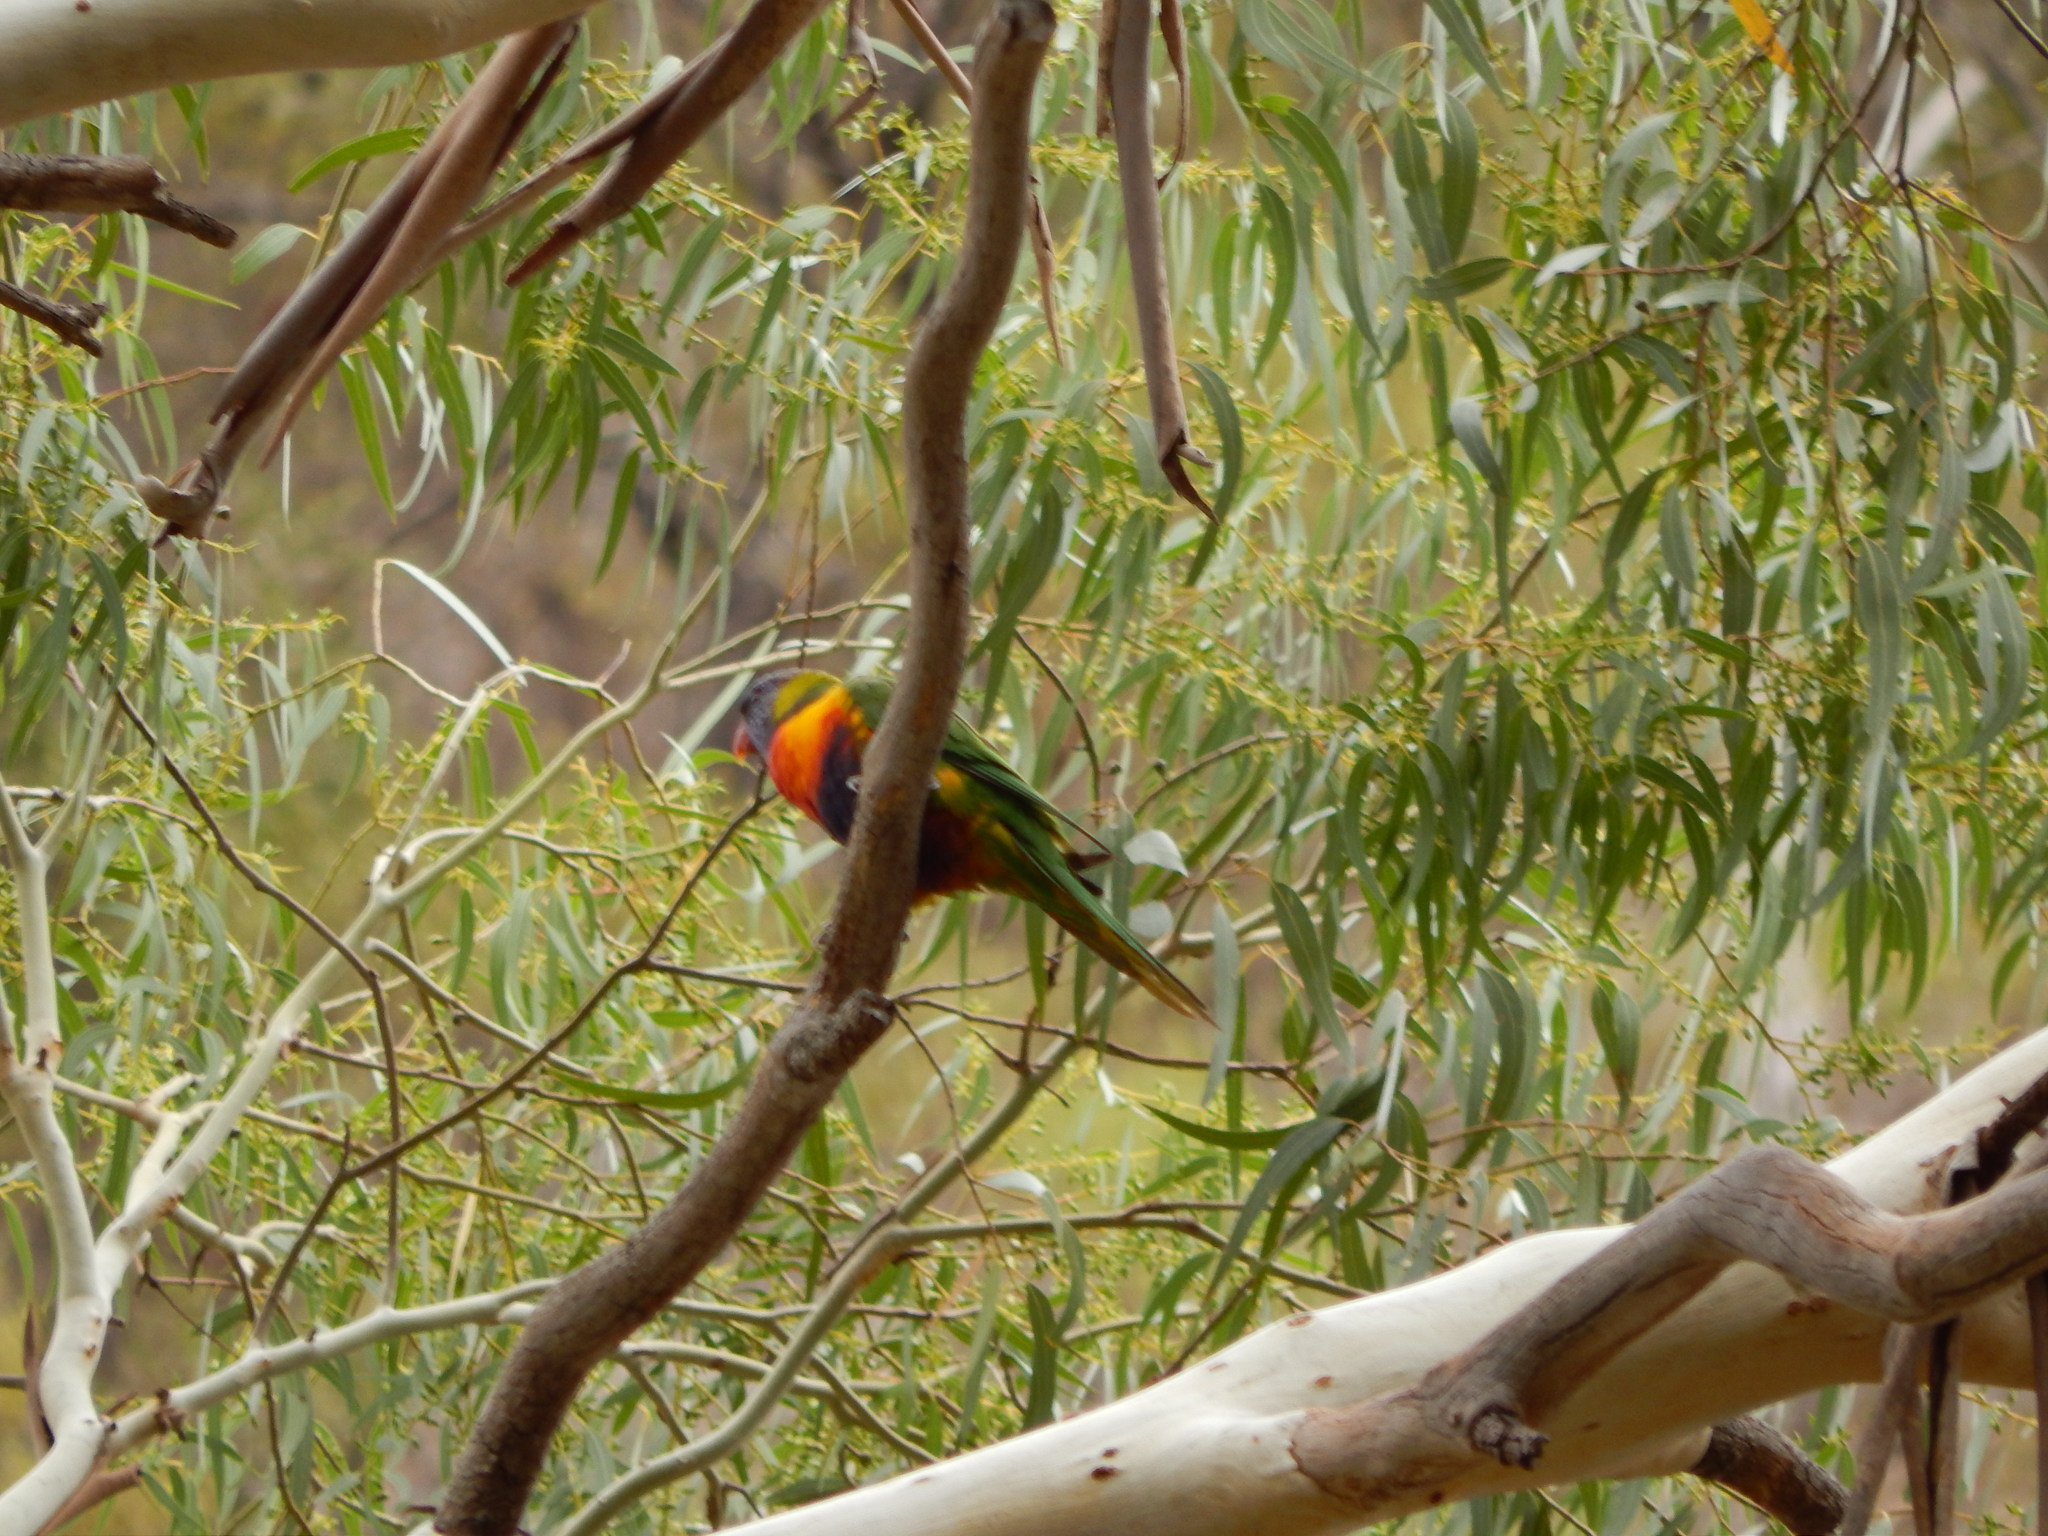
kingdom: Animalia
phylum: Chordata
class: Aves
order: Psittaciformes
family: Psittacidae
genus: Trichoglossus
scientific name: Trichoglossus haematodus
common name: Coconut lorikeet
